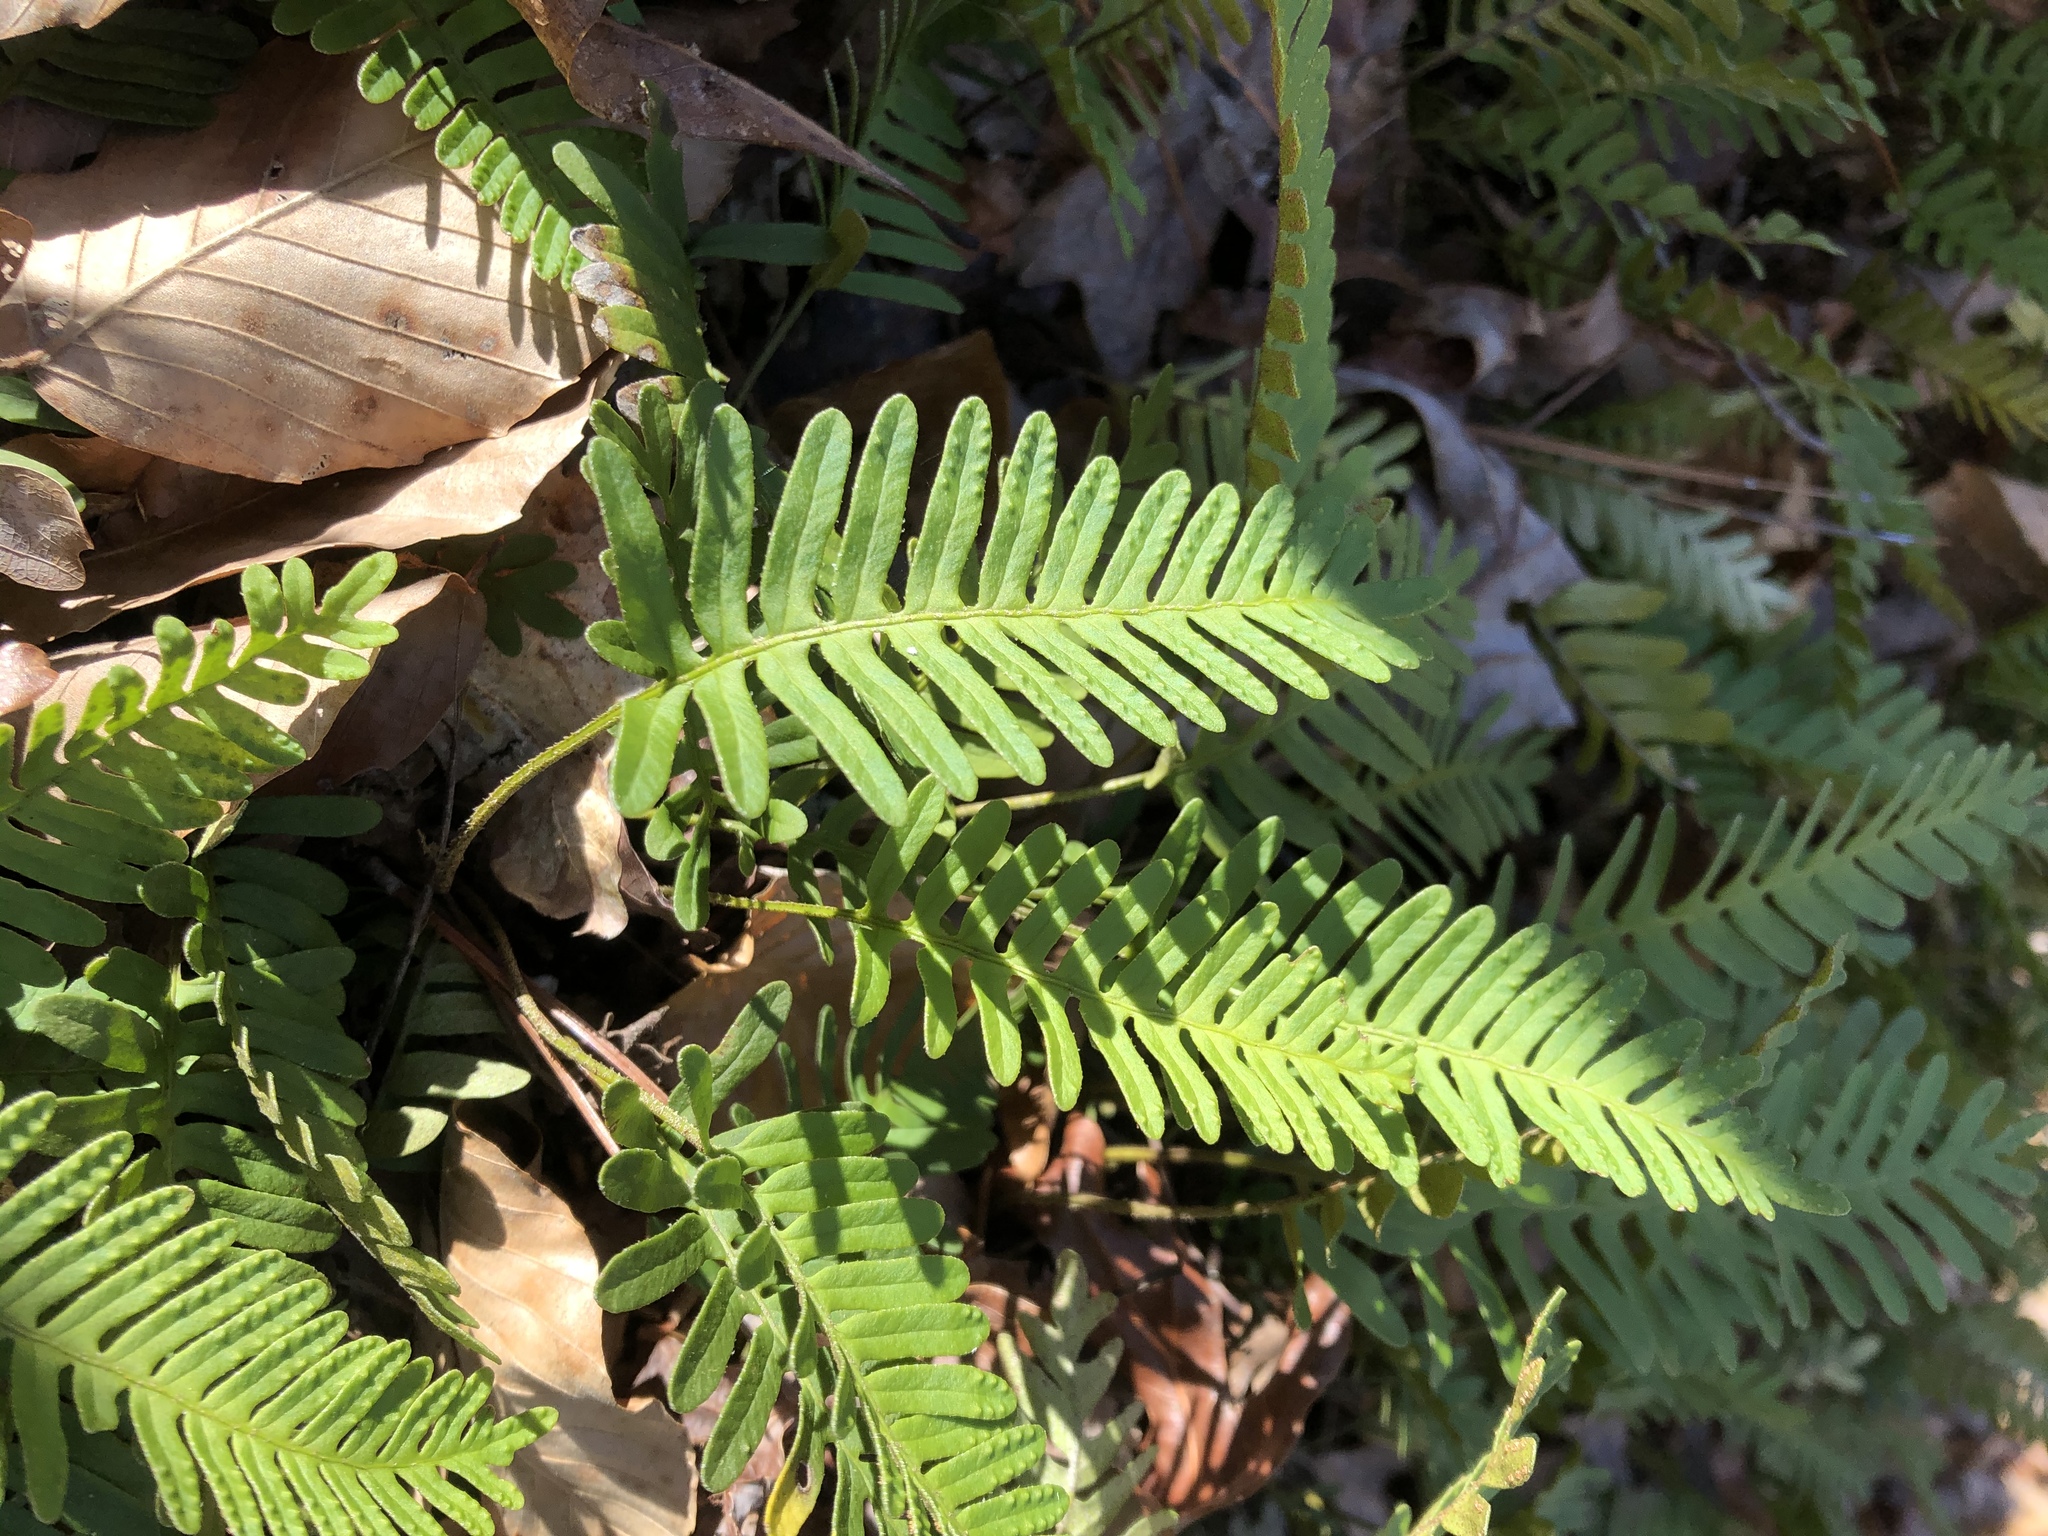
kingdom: Plantae
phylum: Tracheophyta
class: Polypodiopsida
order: Polypodiales
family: Polypodiaceae
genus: Polypodium
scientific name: Polypodium virginianum
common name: American wall fern
